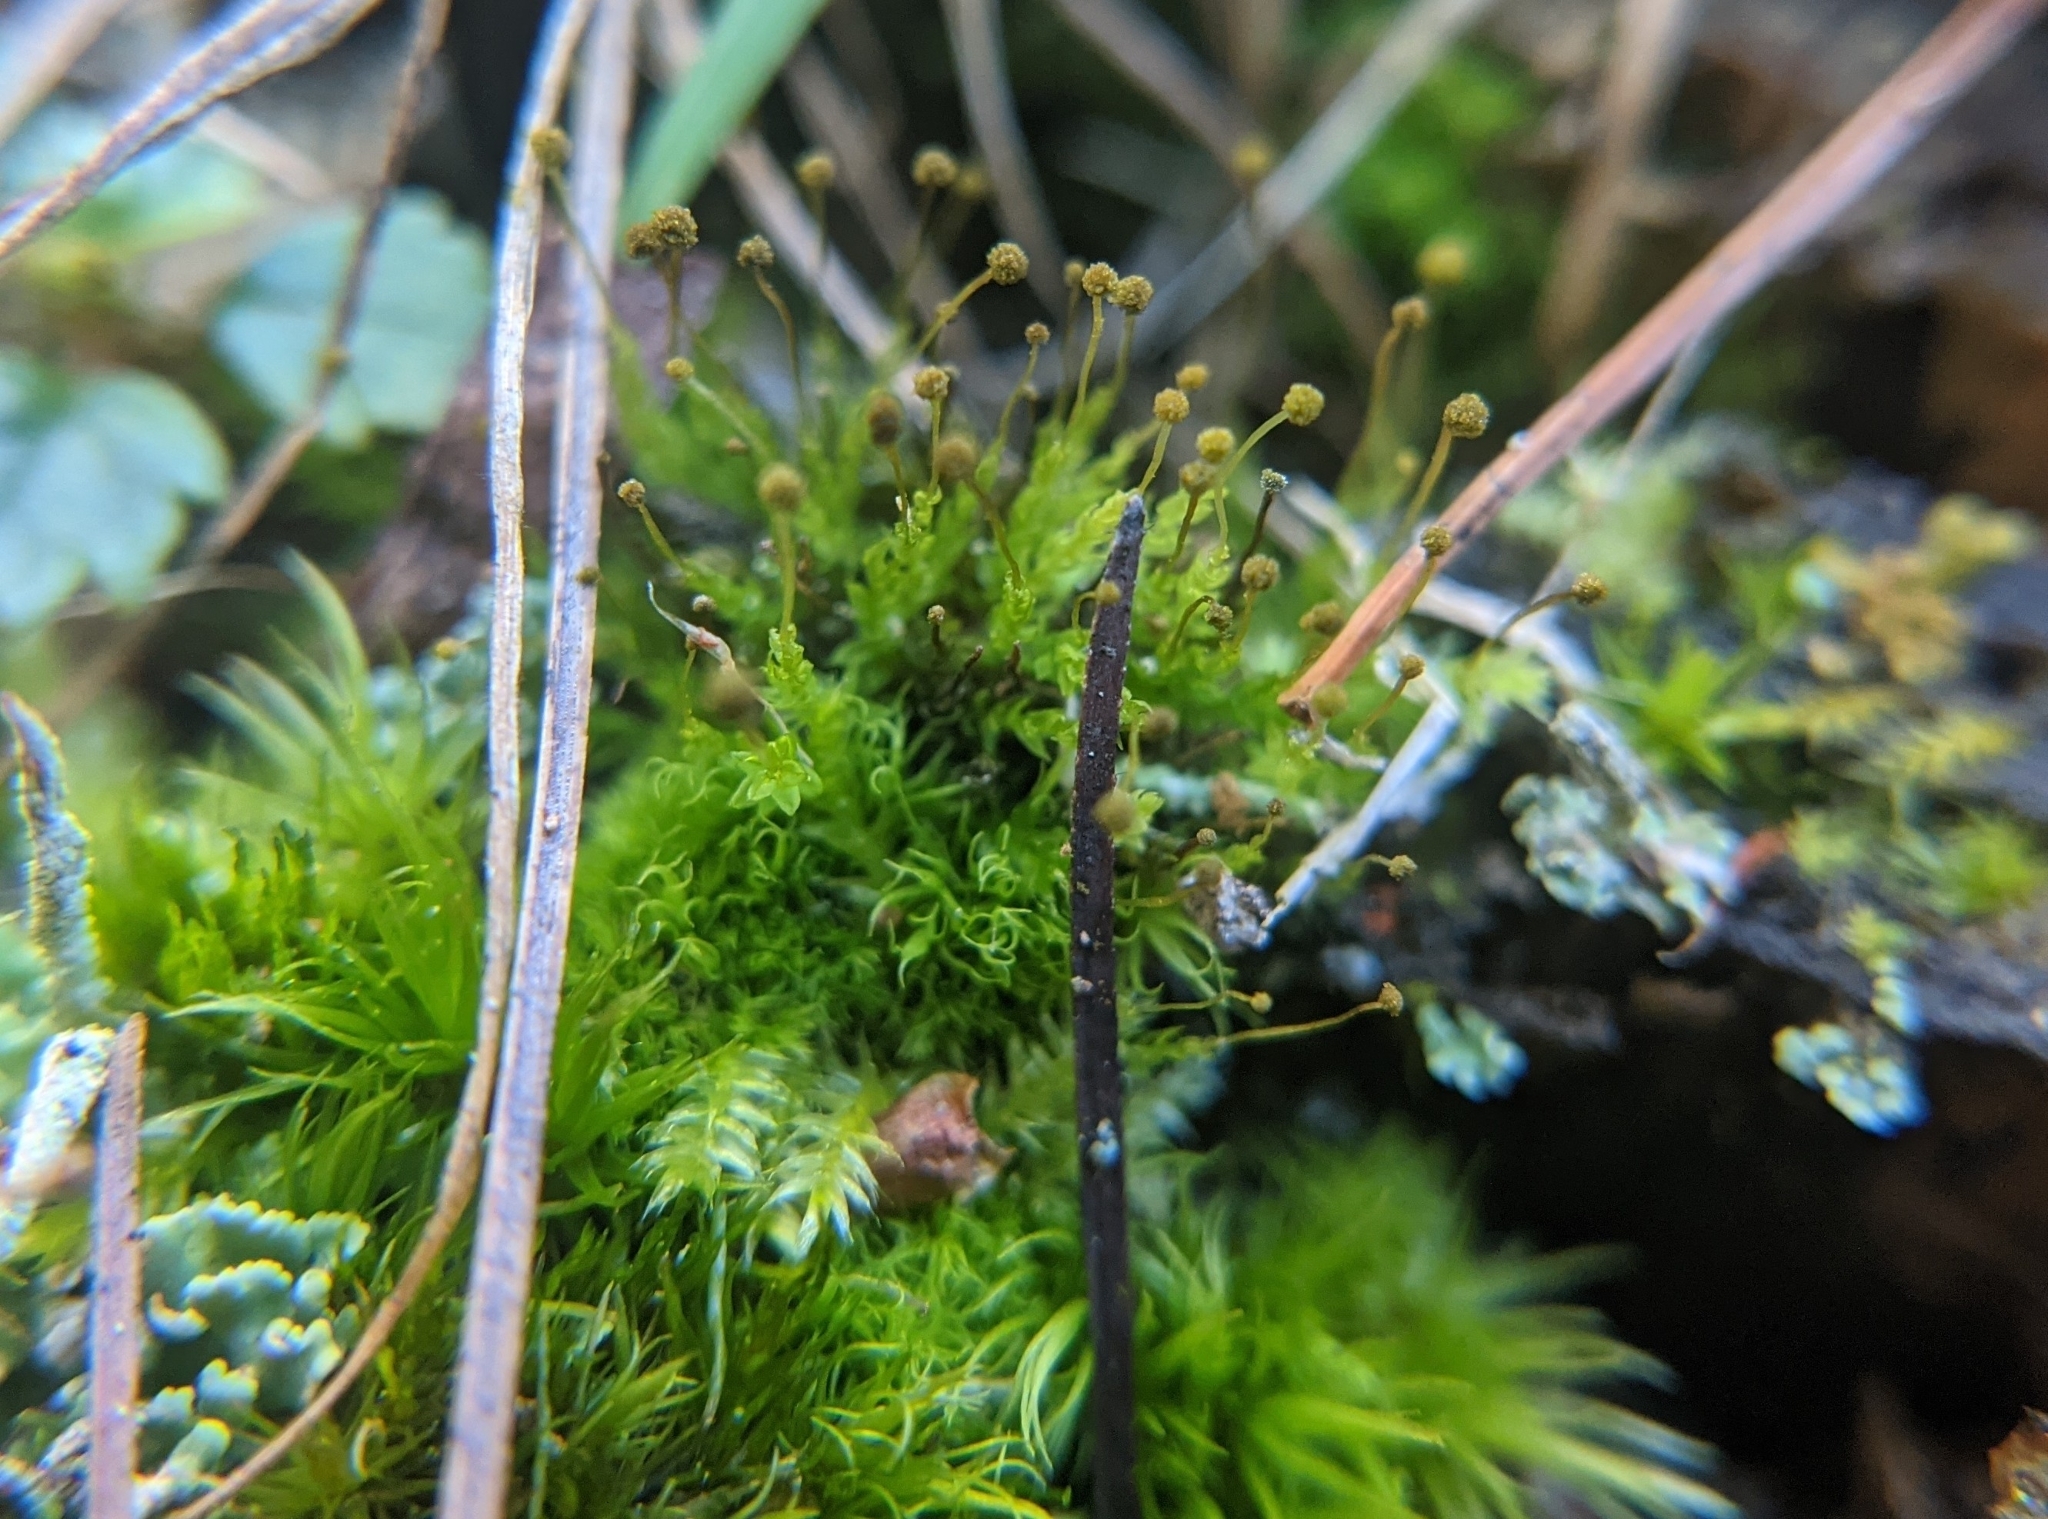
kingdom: Plantae
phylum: Bryophyta
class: Bryopsida
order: Aulacomniales
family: Aulacomniaceae
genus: Aulacomnium
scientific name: Aulacomnium androgynum
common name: Little groove moss
